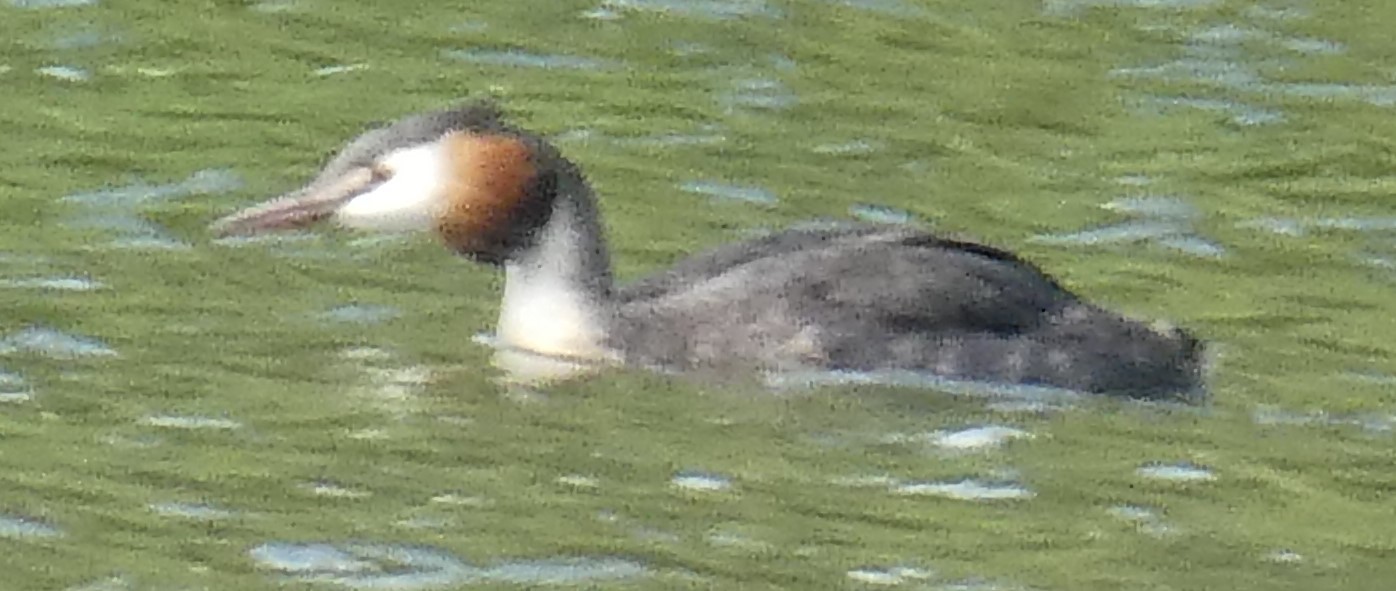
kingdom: Animalia
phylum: Chordata
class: Aves
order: Podicipediformes
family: Podicipedidae
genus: Podiceps
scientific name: Podiceps cristatus
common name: Great crested grebe
